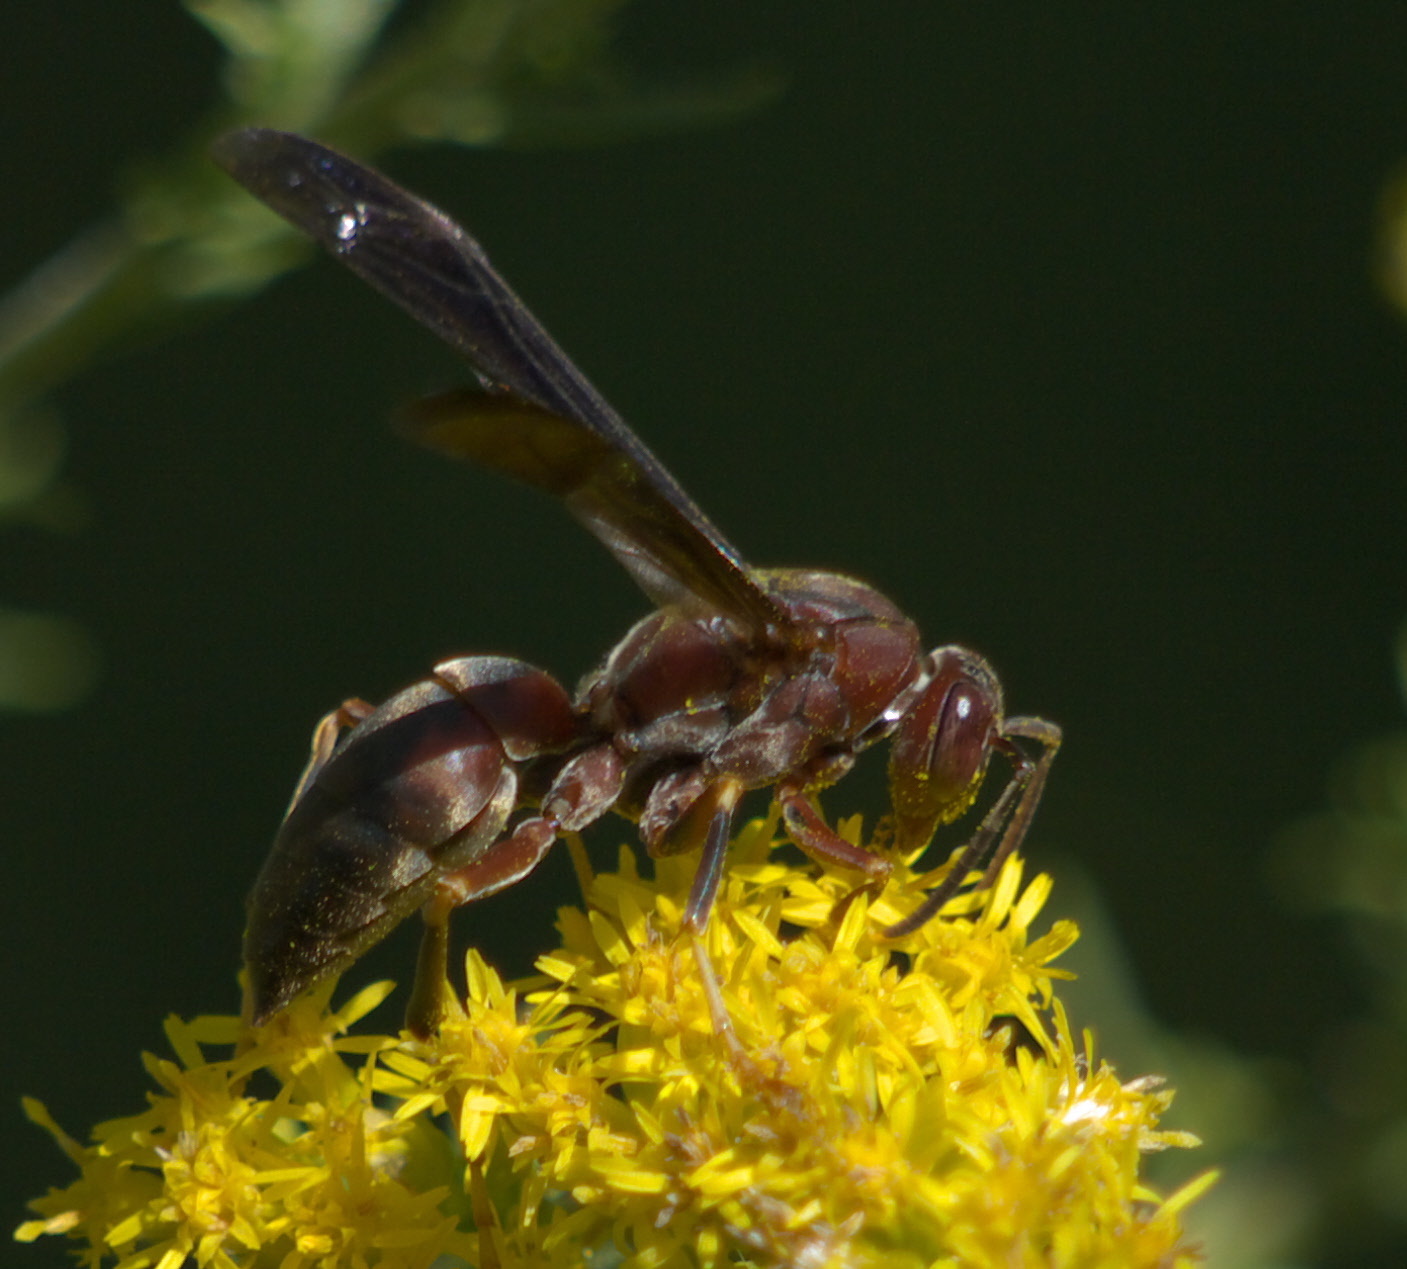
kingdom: Animalia
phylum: Arthropoda
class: Insecta
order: Hymenoptera
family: Eumenidae
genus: Polistes
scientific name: Polistes metricus
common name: Metric paper wasp
